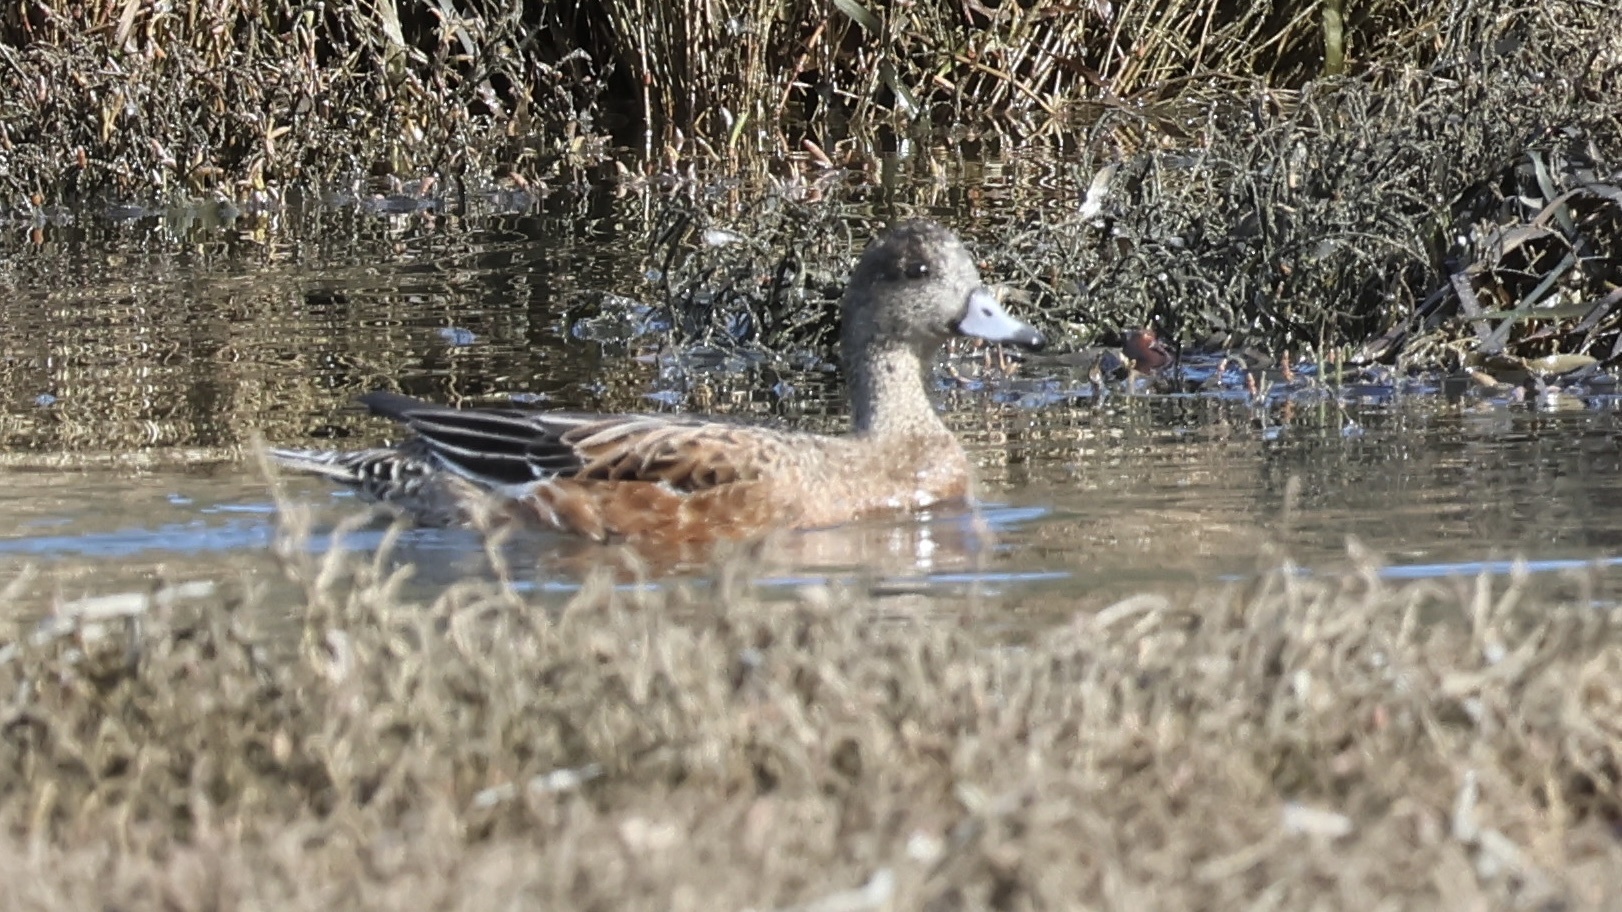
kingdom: Animalia
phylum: Chordata
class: Aves
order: Anseriformes
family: Anatidae
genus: Mareca
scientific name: Mareca americana
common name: American wigeon
